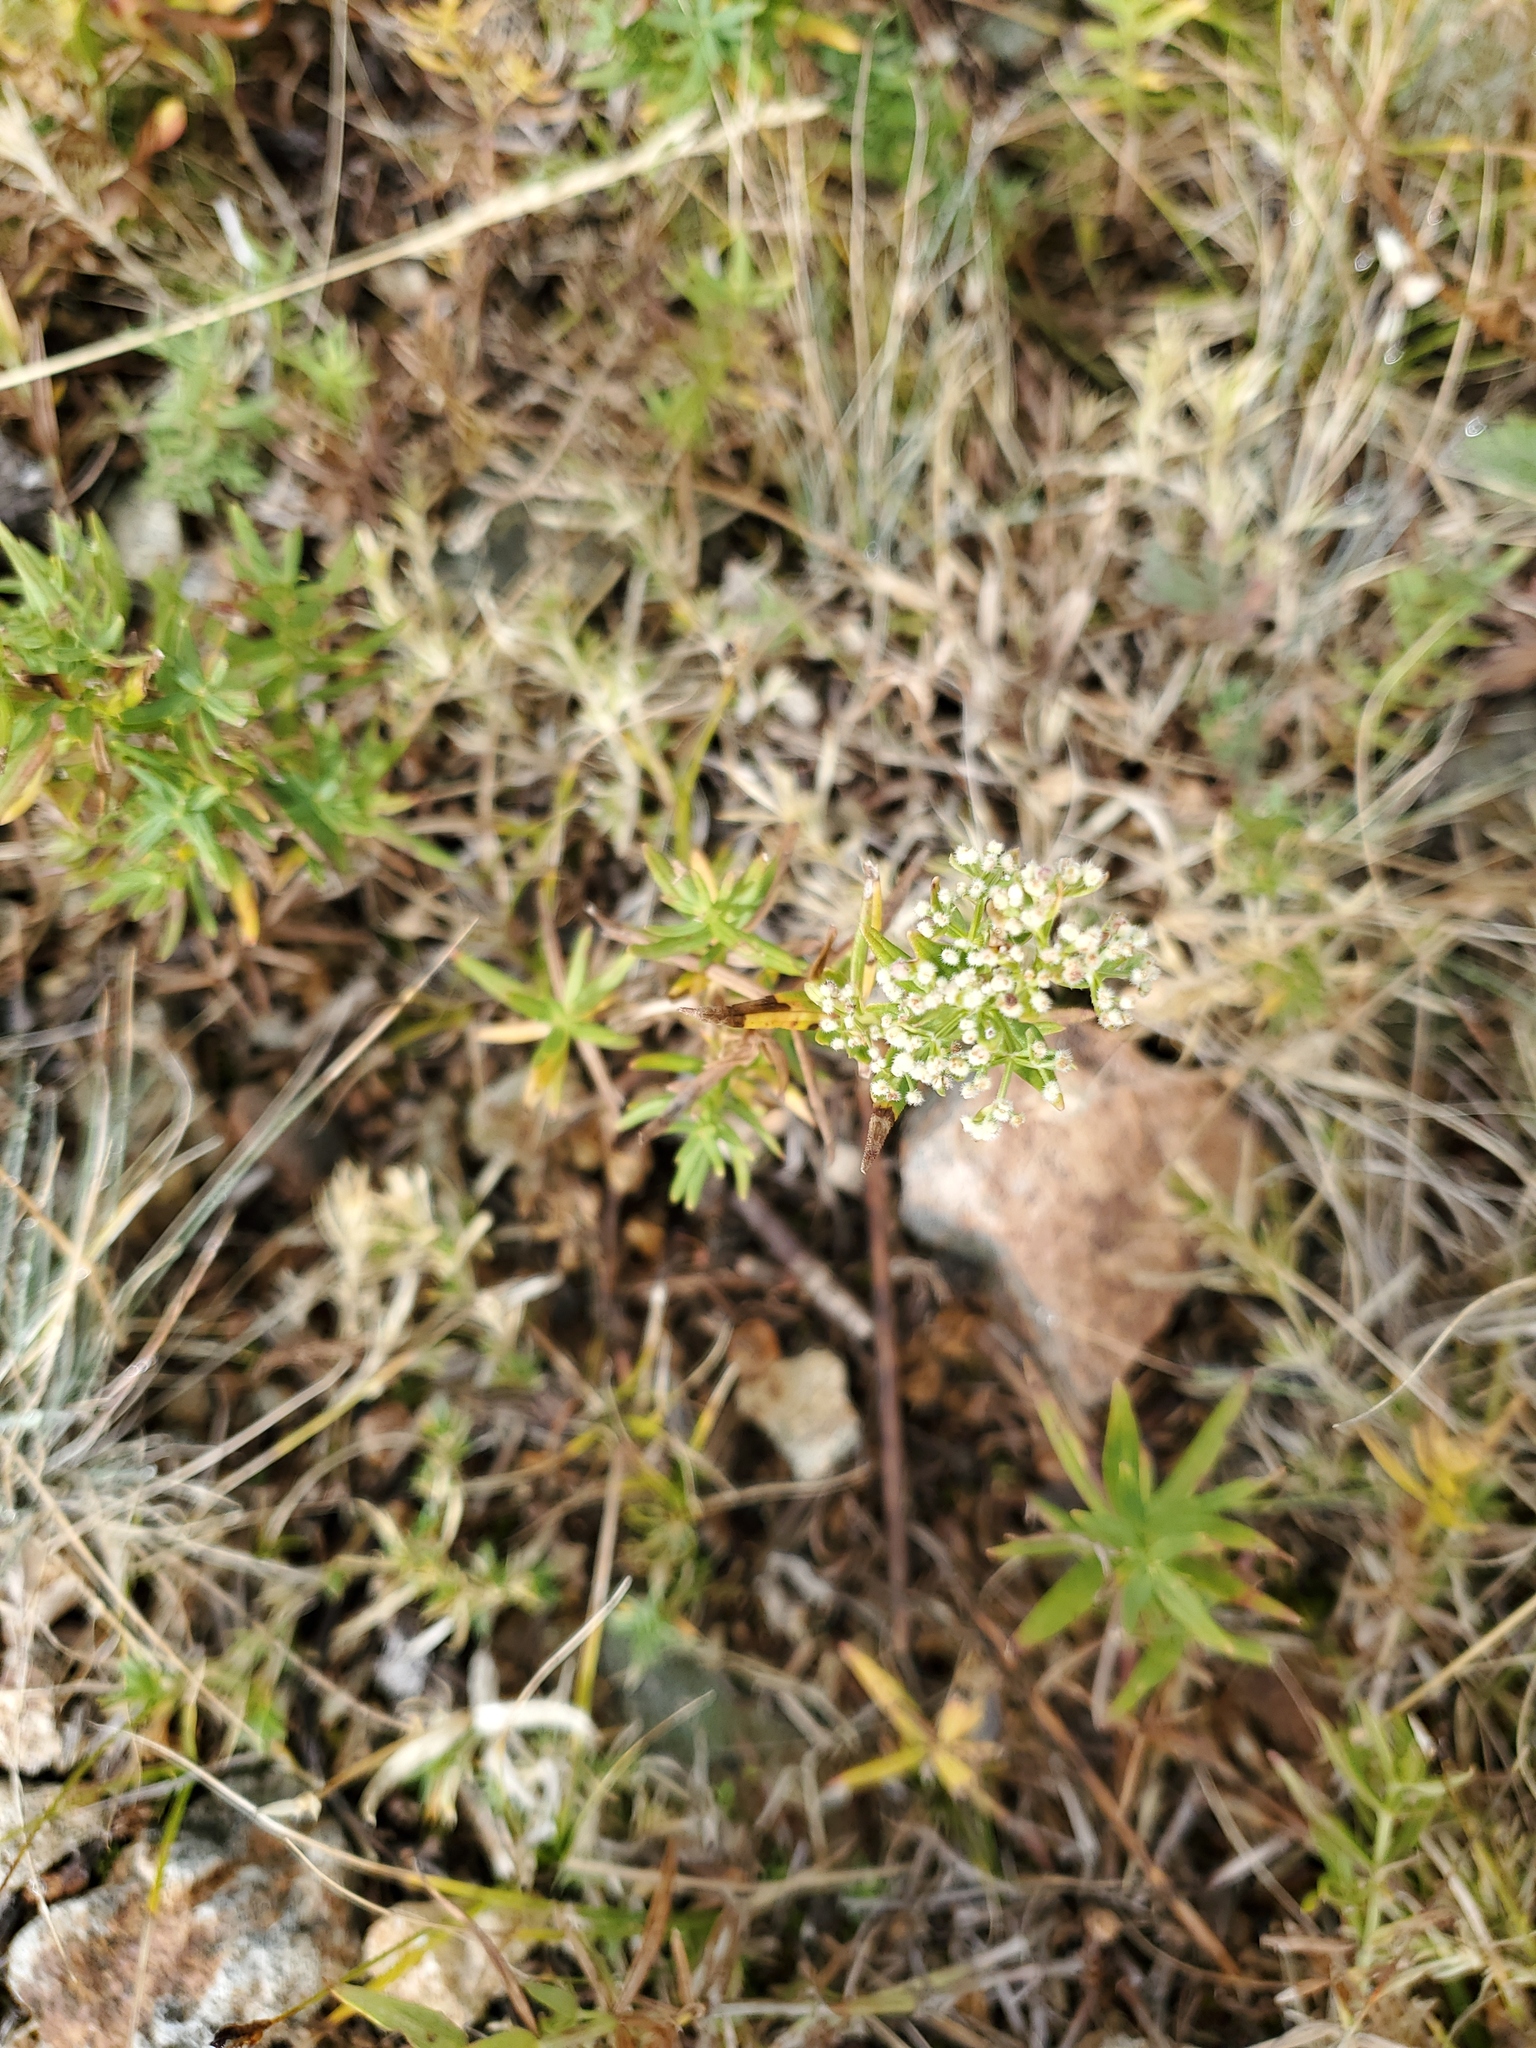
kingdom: Plantae
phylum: Tracheophyta
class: Magnoliopsida
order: Gentianales
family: Rubiaceae
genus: Galium
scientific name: Galium boreale
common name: Northern bedstraw
